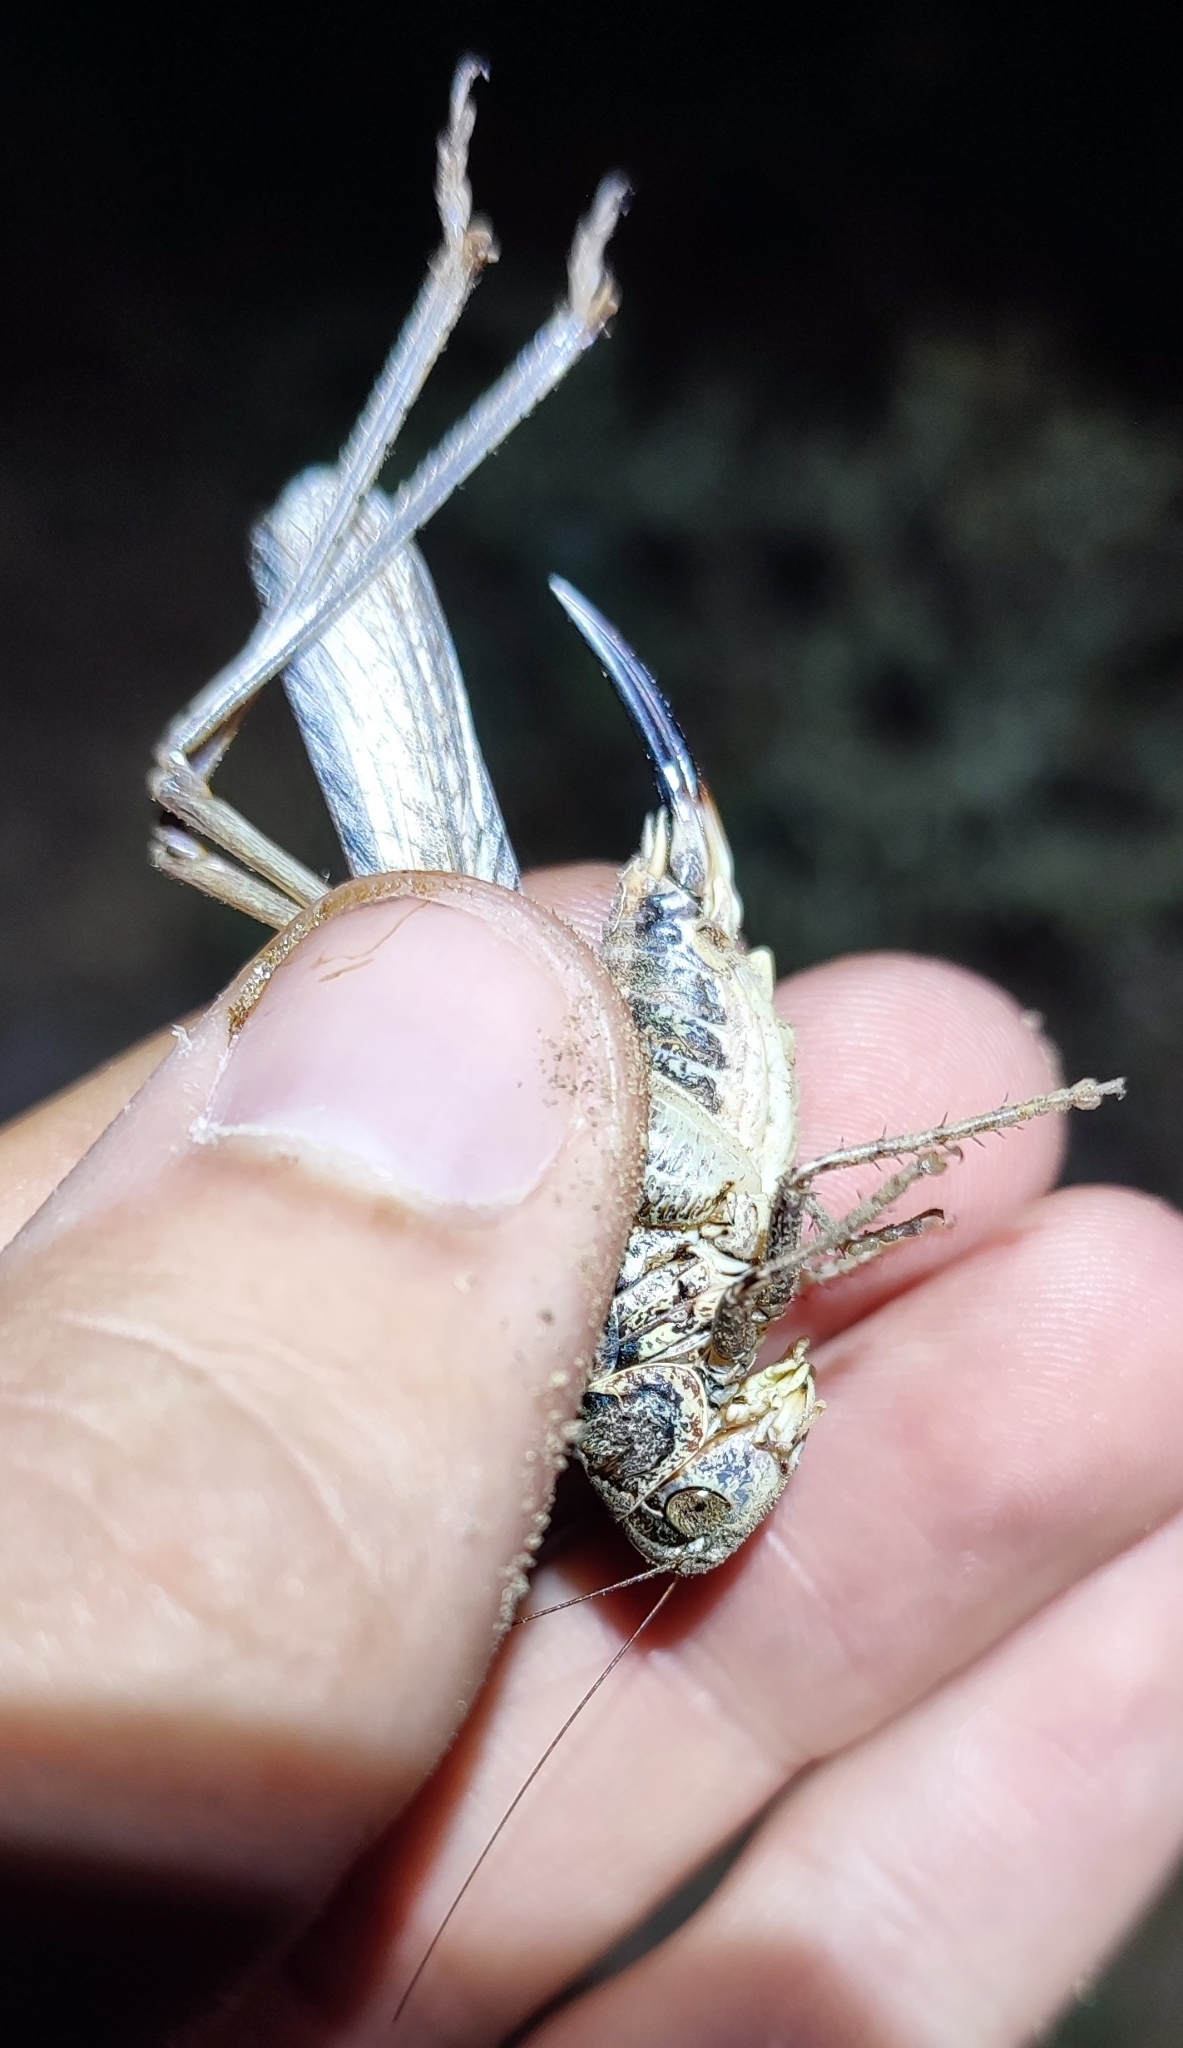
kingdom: Animalia
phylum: Arthropoda
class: Insecta
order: Orthoptera
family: Tettigoniidae
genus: Platycleis
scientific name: Platycleis affinis
